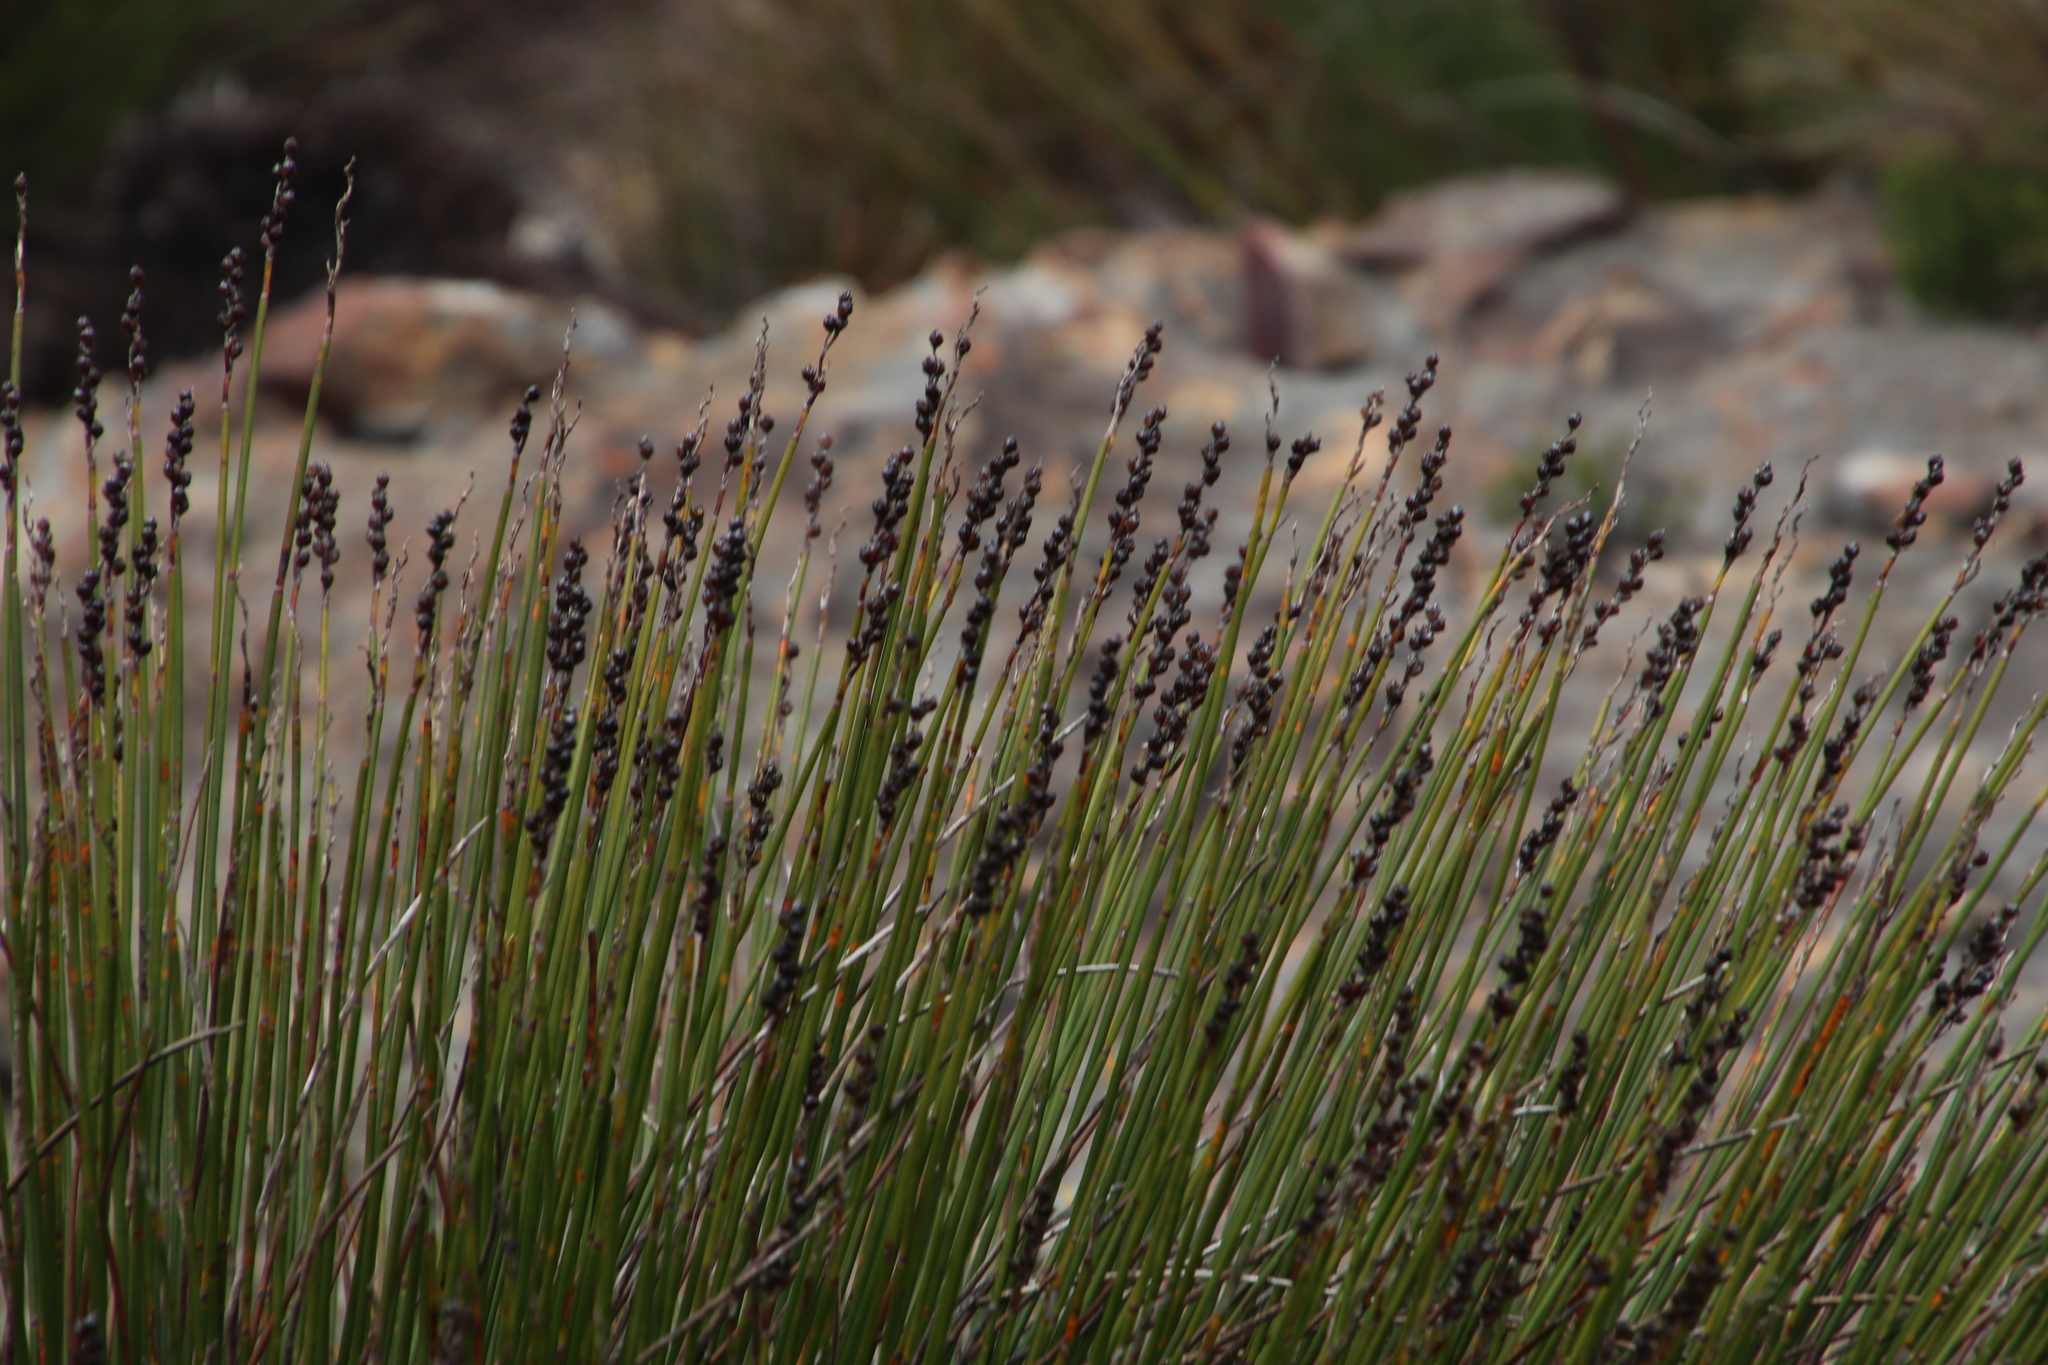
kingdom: Plantae
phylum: Tracheophyta
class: Liliopsida
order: Poales
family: Restionaceae
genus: Askidiosperma
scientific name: Askidiosperma andreaeanum
